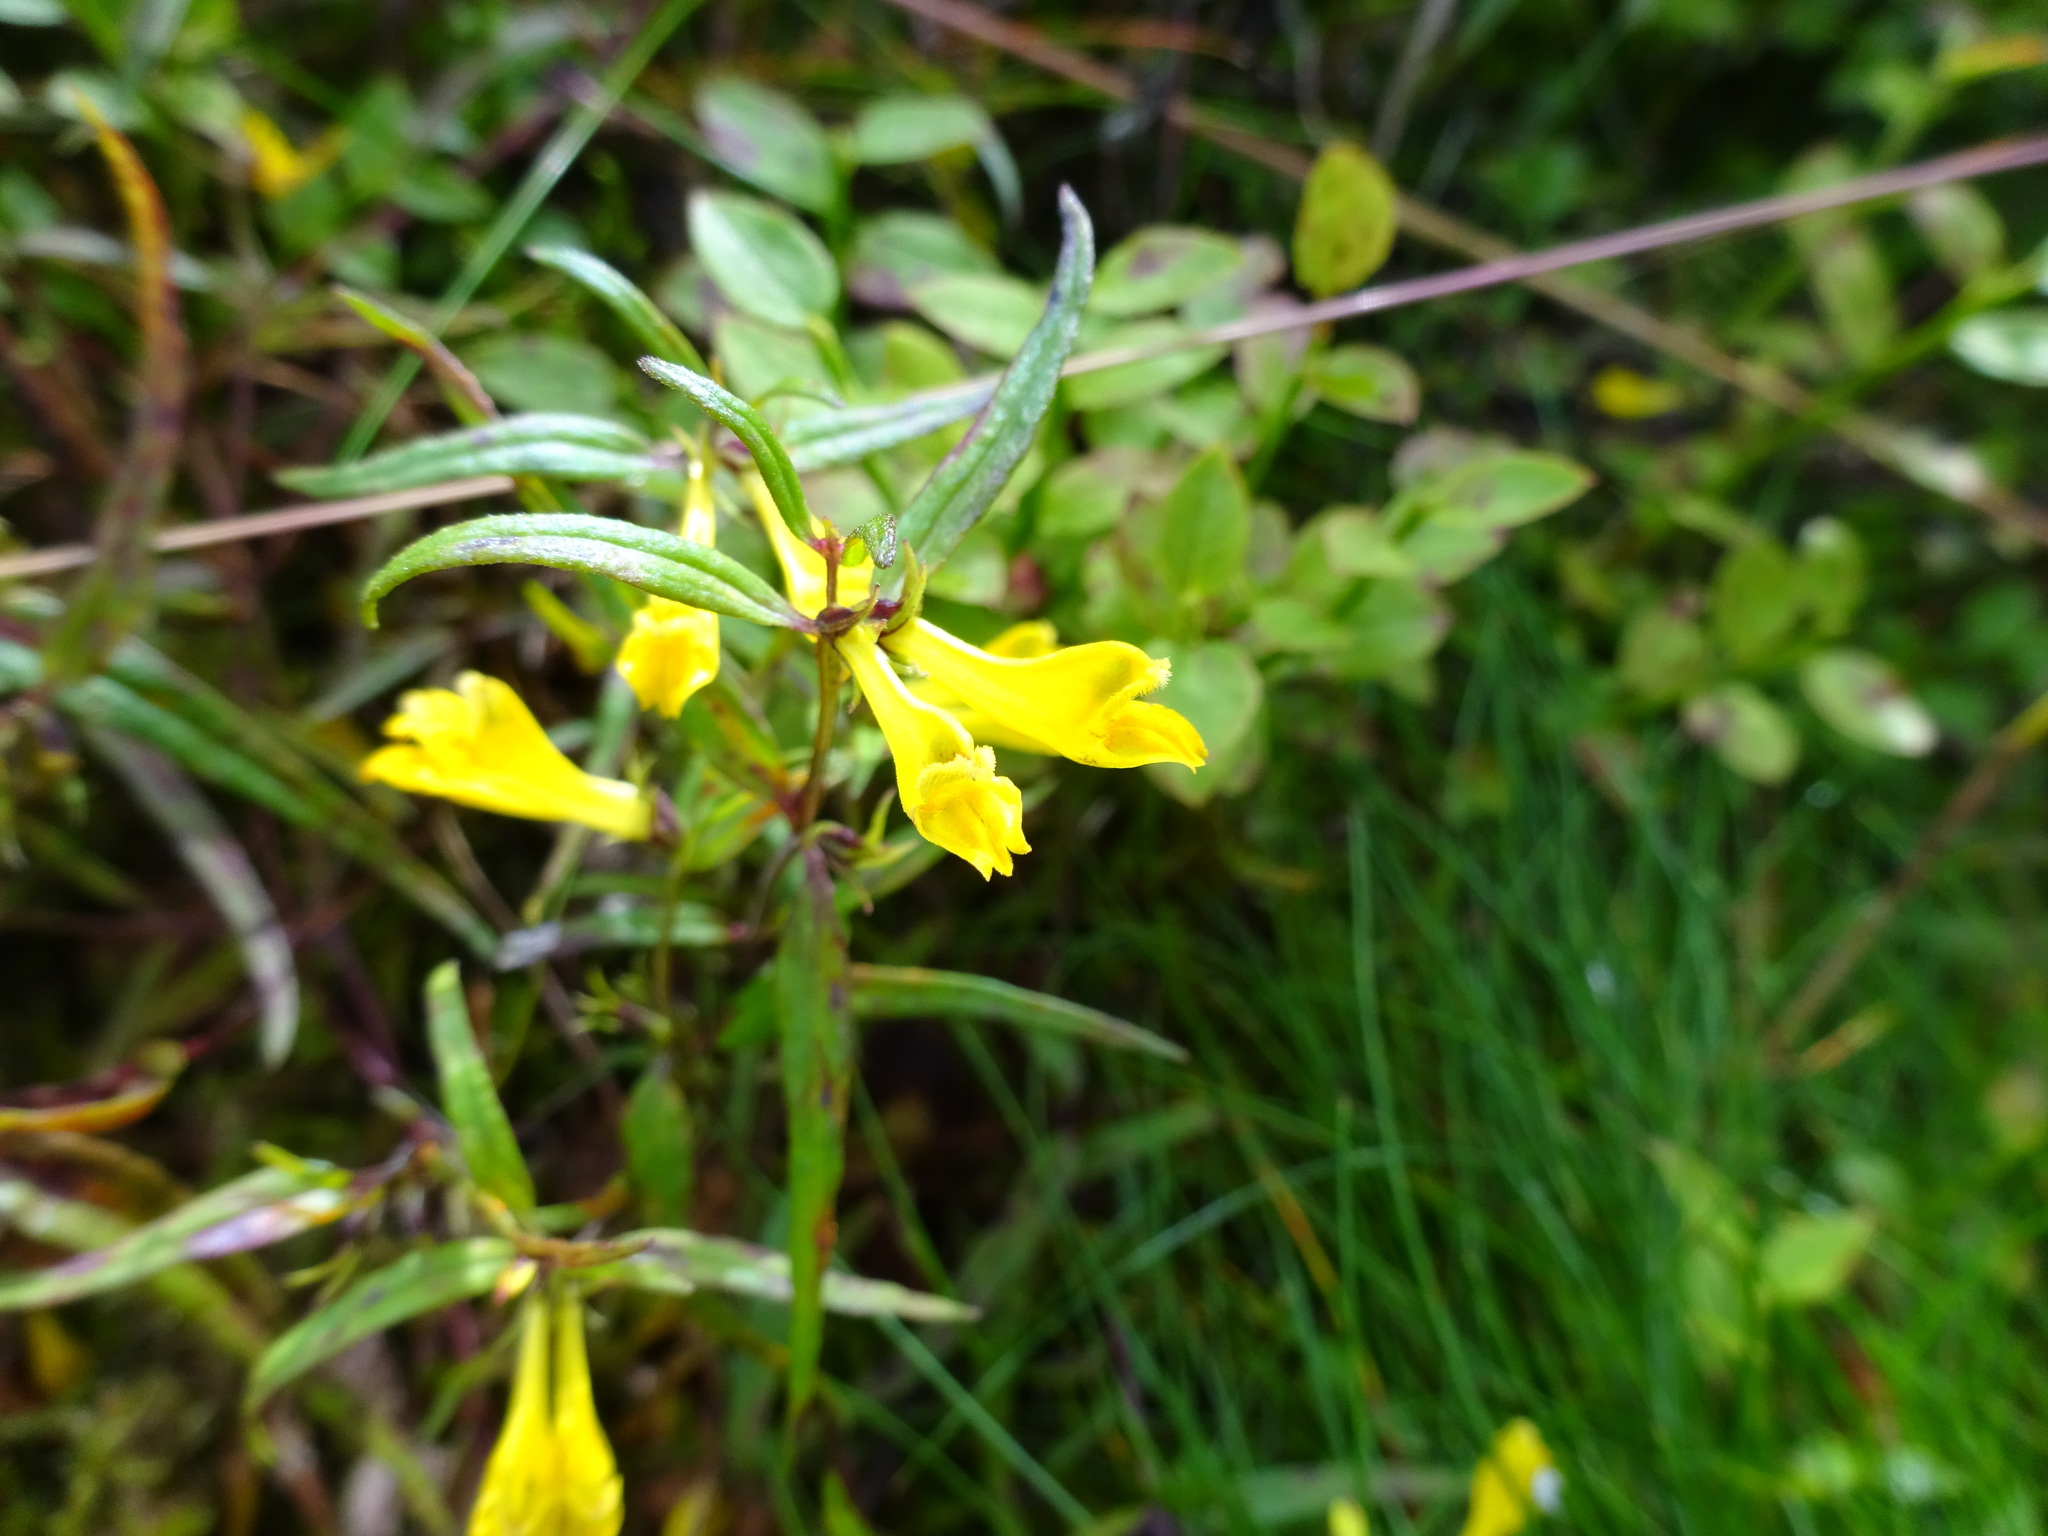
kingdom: Plantae
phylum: Tracheophyta
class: Magnoliopsida
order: Lamiales
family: Orobanchaceae
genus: Melampyrum
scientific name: Melampyrum pratense
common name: Common cow-wheat
